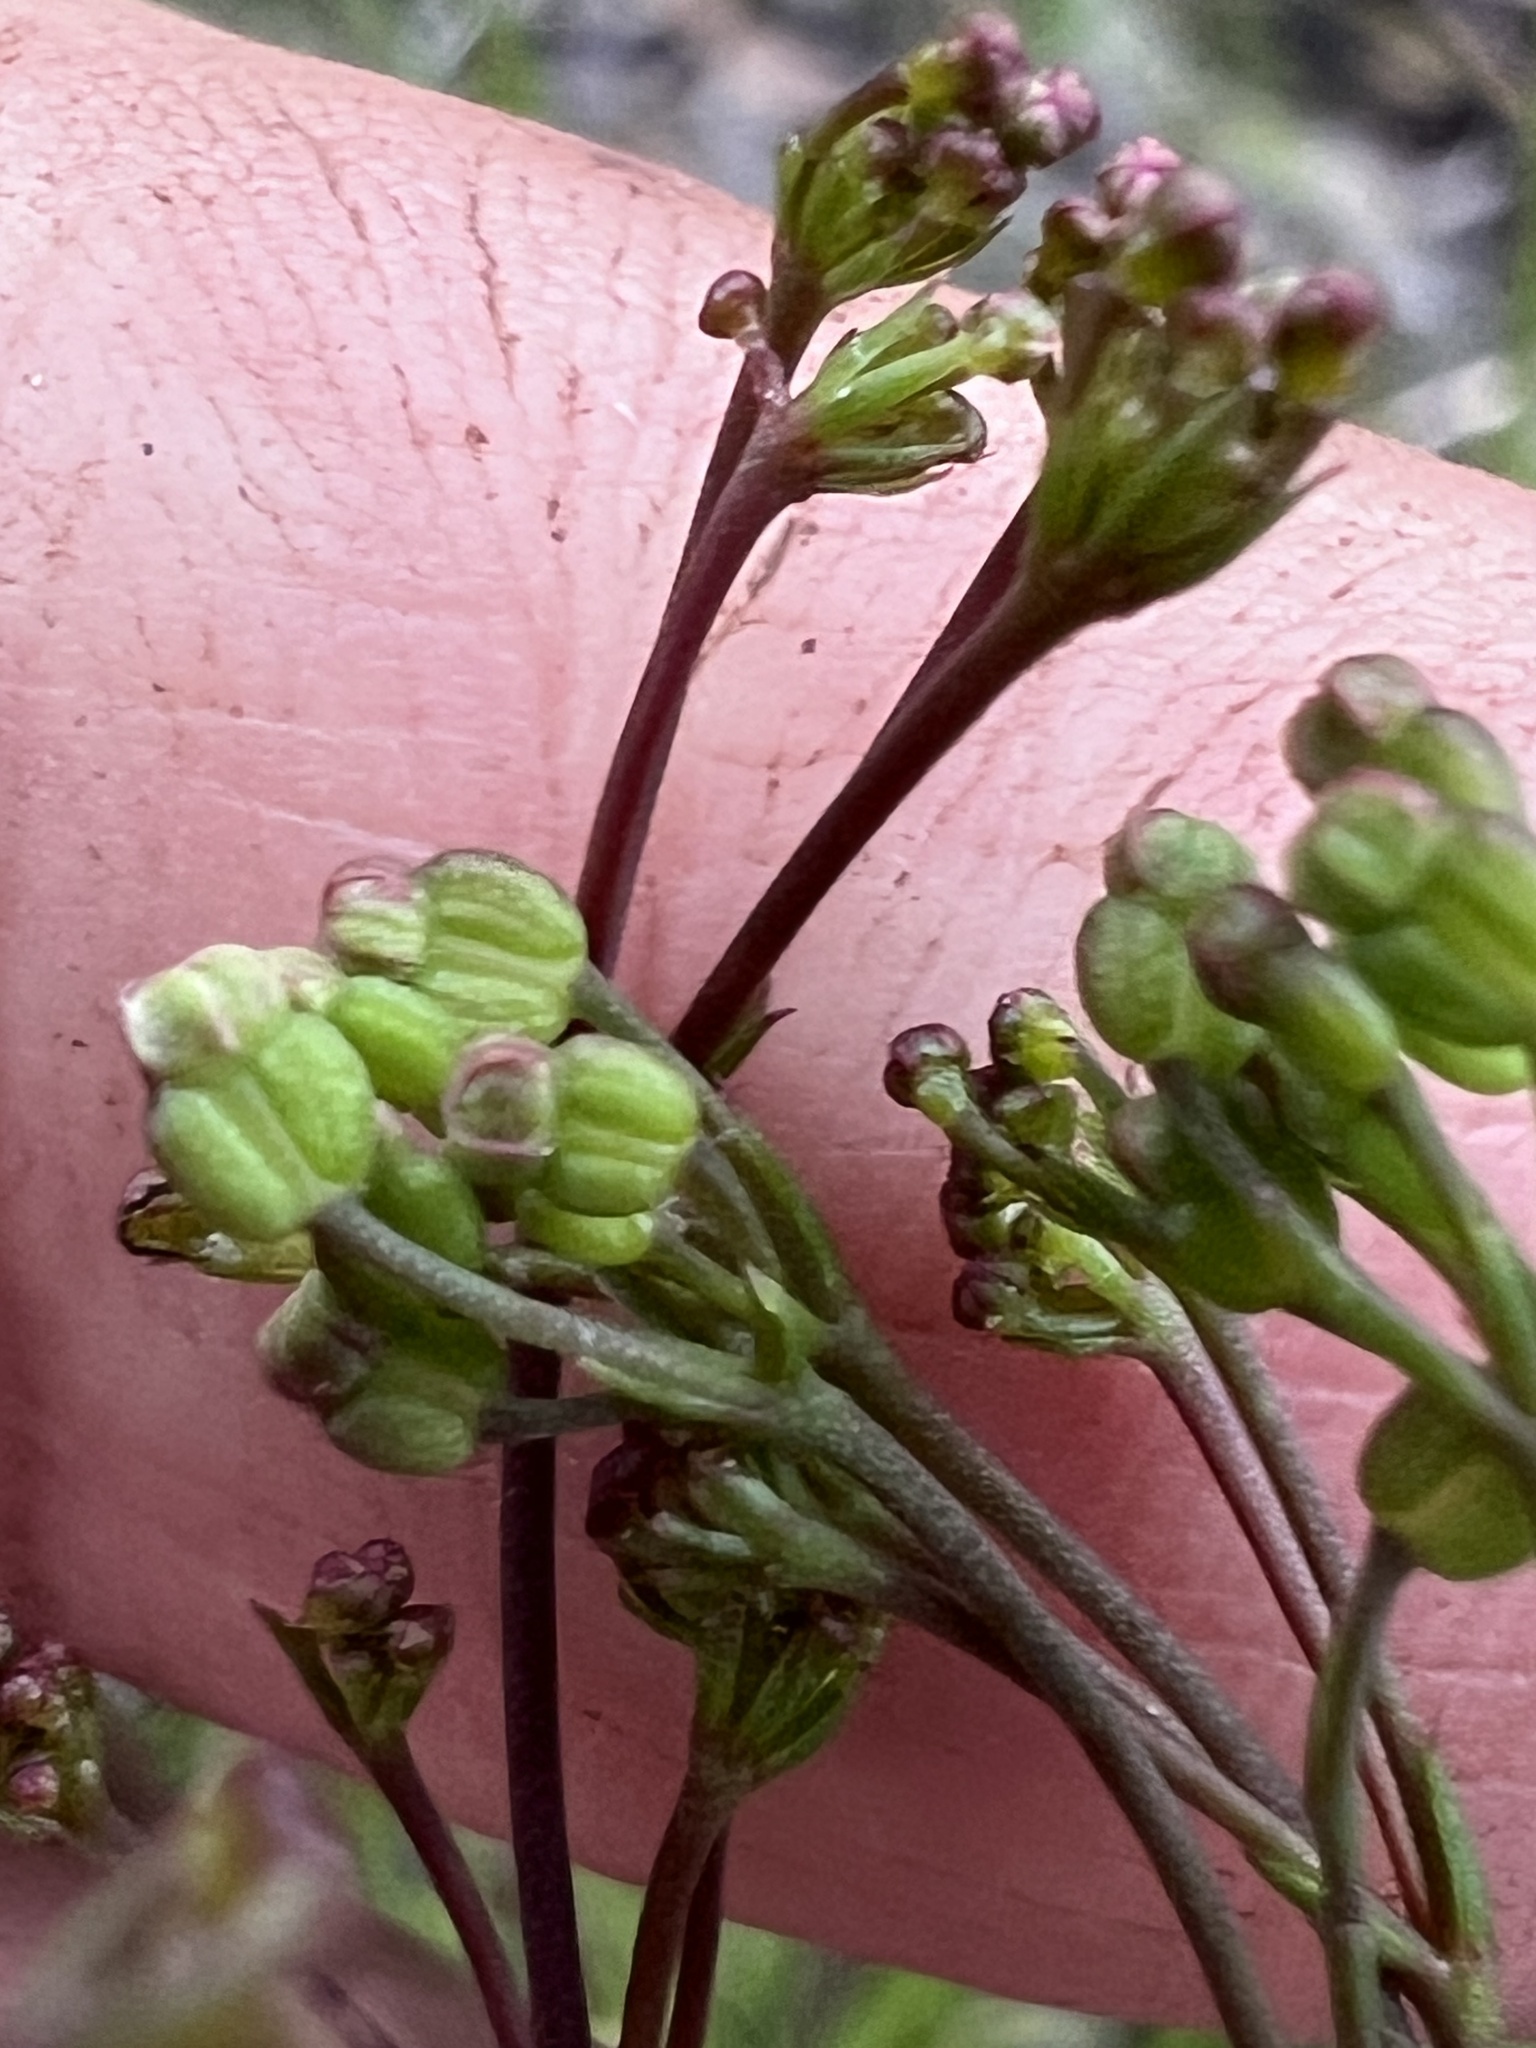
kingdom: Plantae
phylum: Tracheophyta
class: Magnoliopsida
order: Apiales
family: Apiaceae
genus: Platysace
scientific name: Platysace linearifolia
